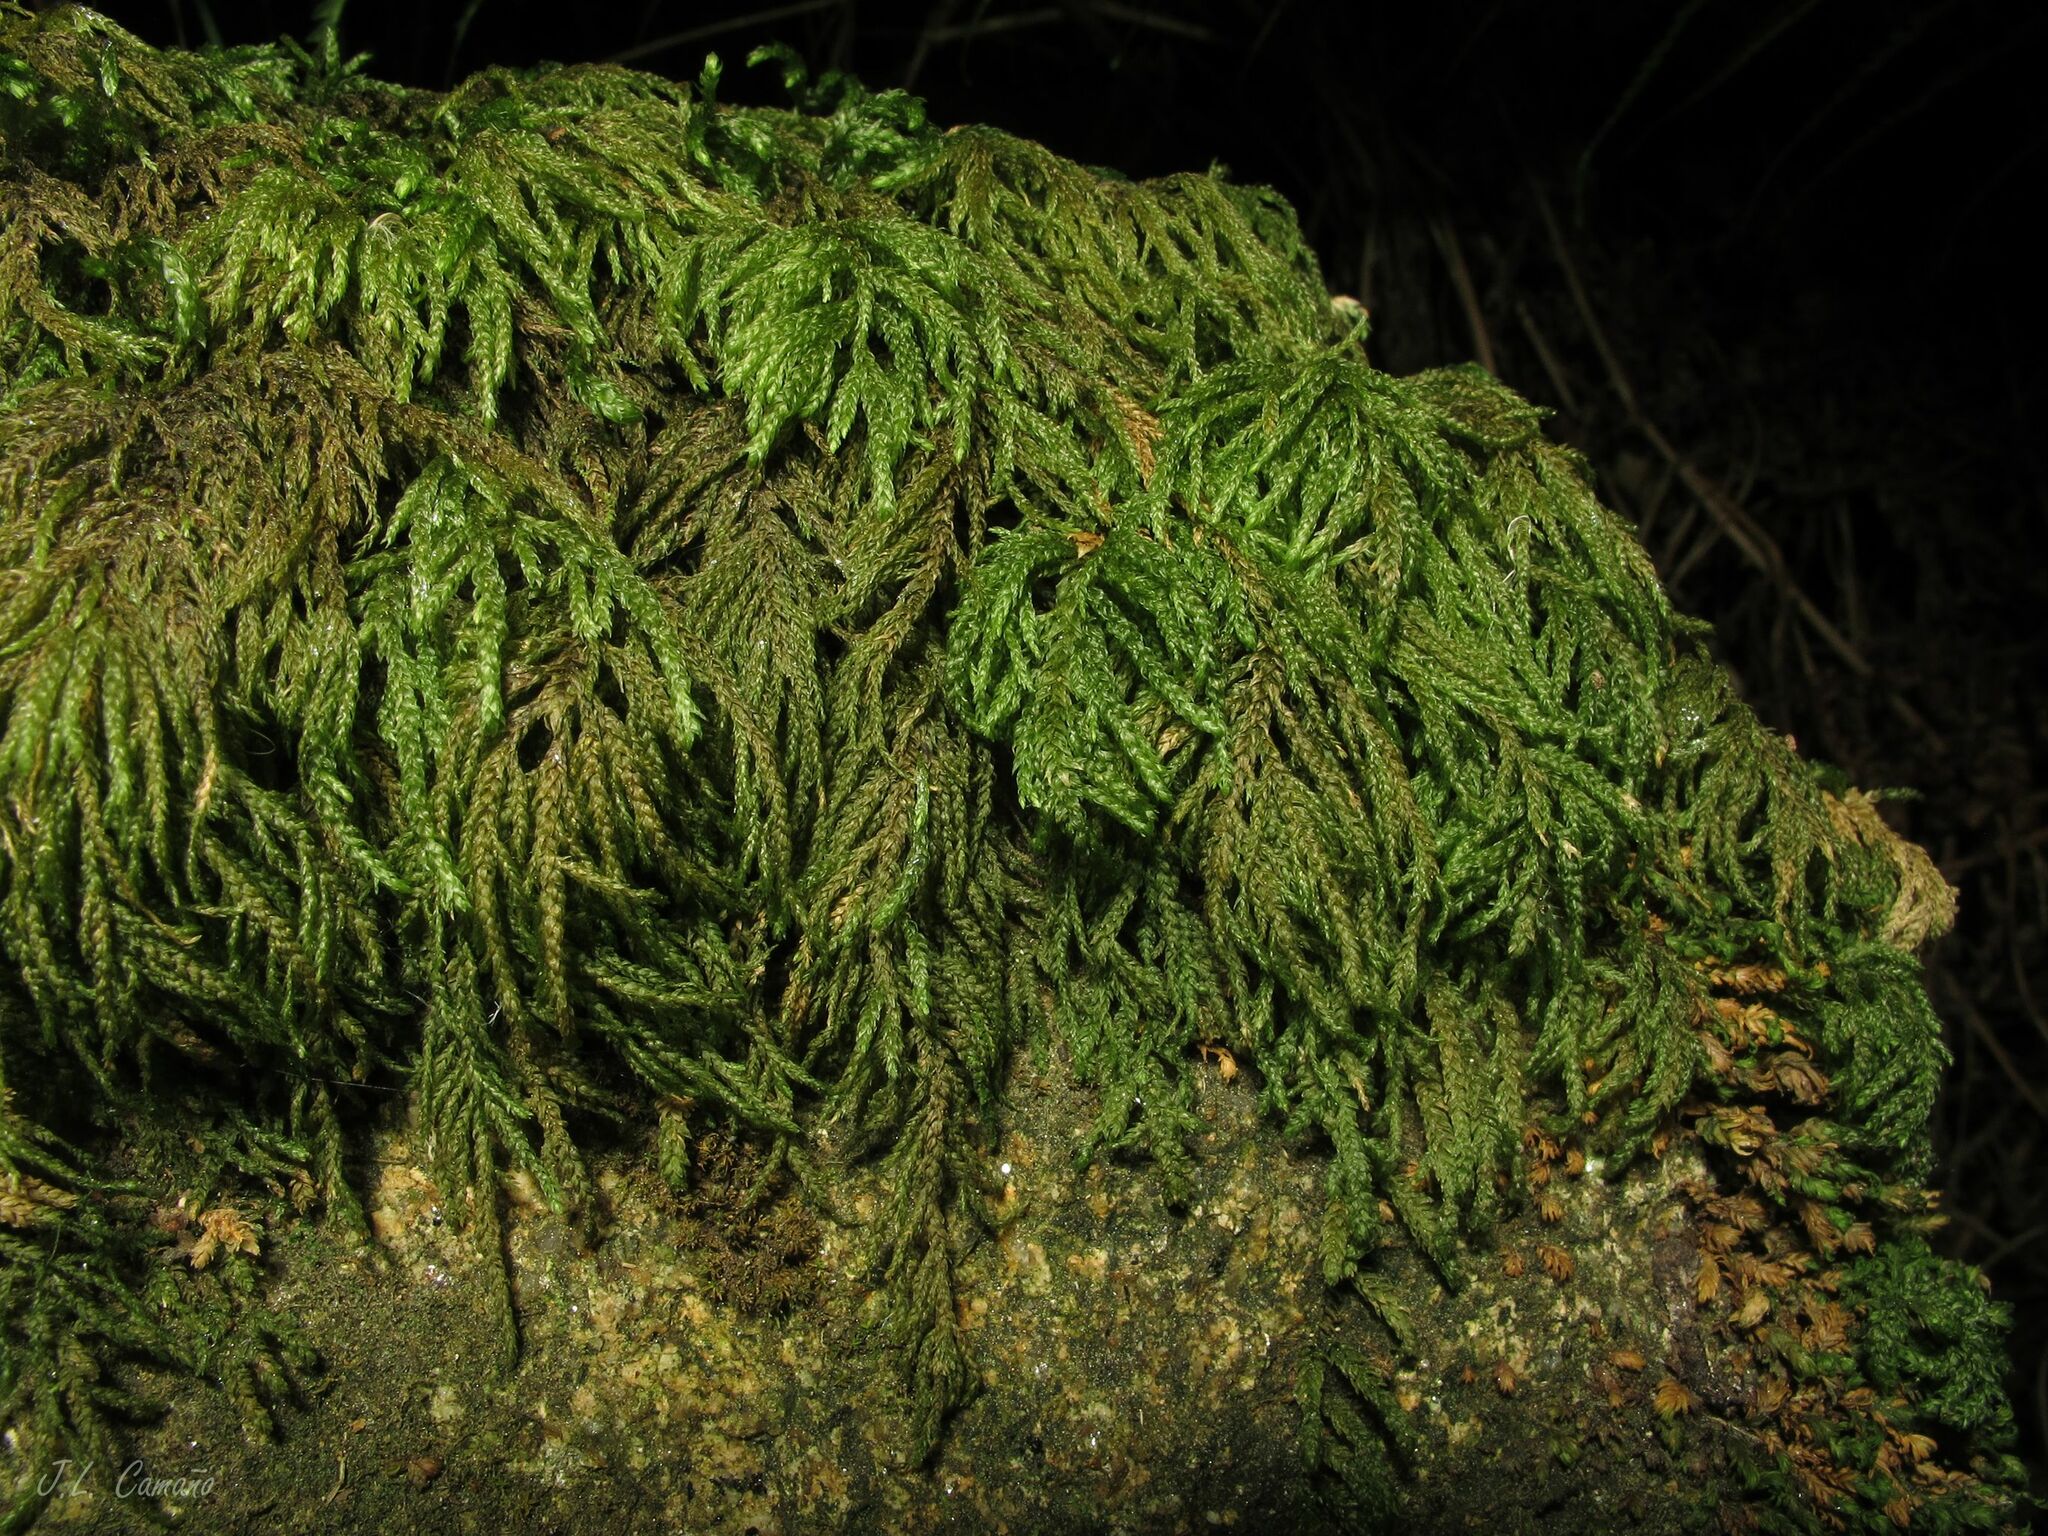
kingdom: Plantae
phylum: Bryophyta
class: Bryopsida
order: Hypnales
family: Neckeraceae
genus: Thamnobryum
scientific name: Thamnobryum alopecurum
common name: Fox-tail feather-moss
